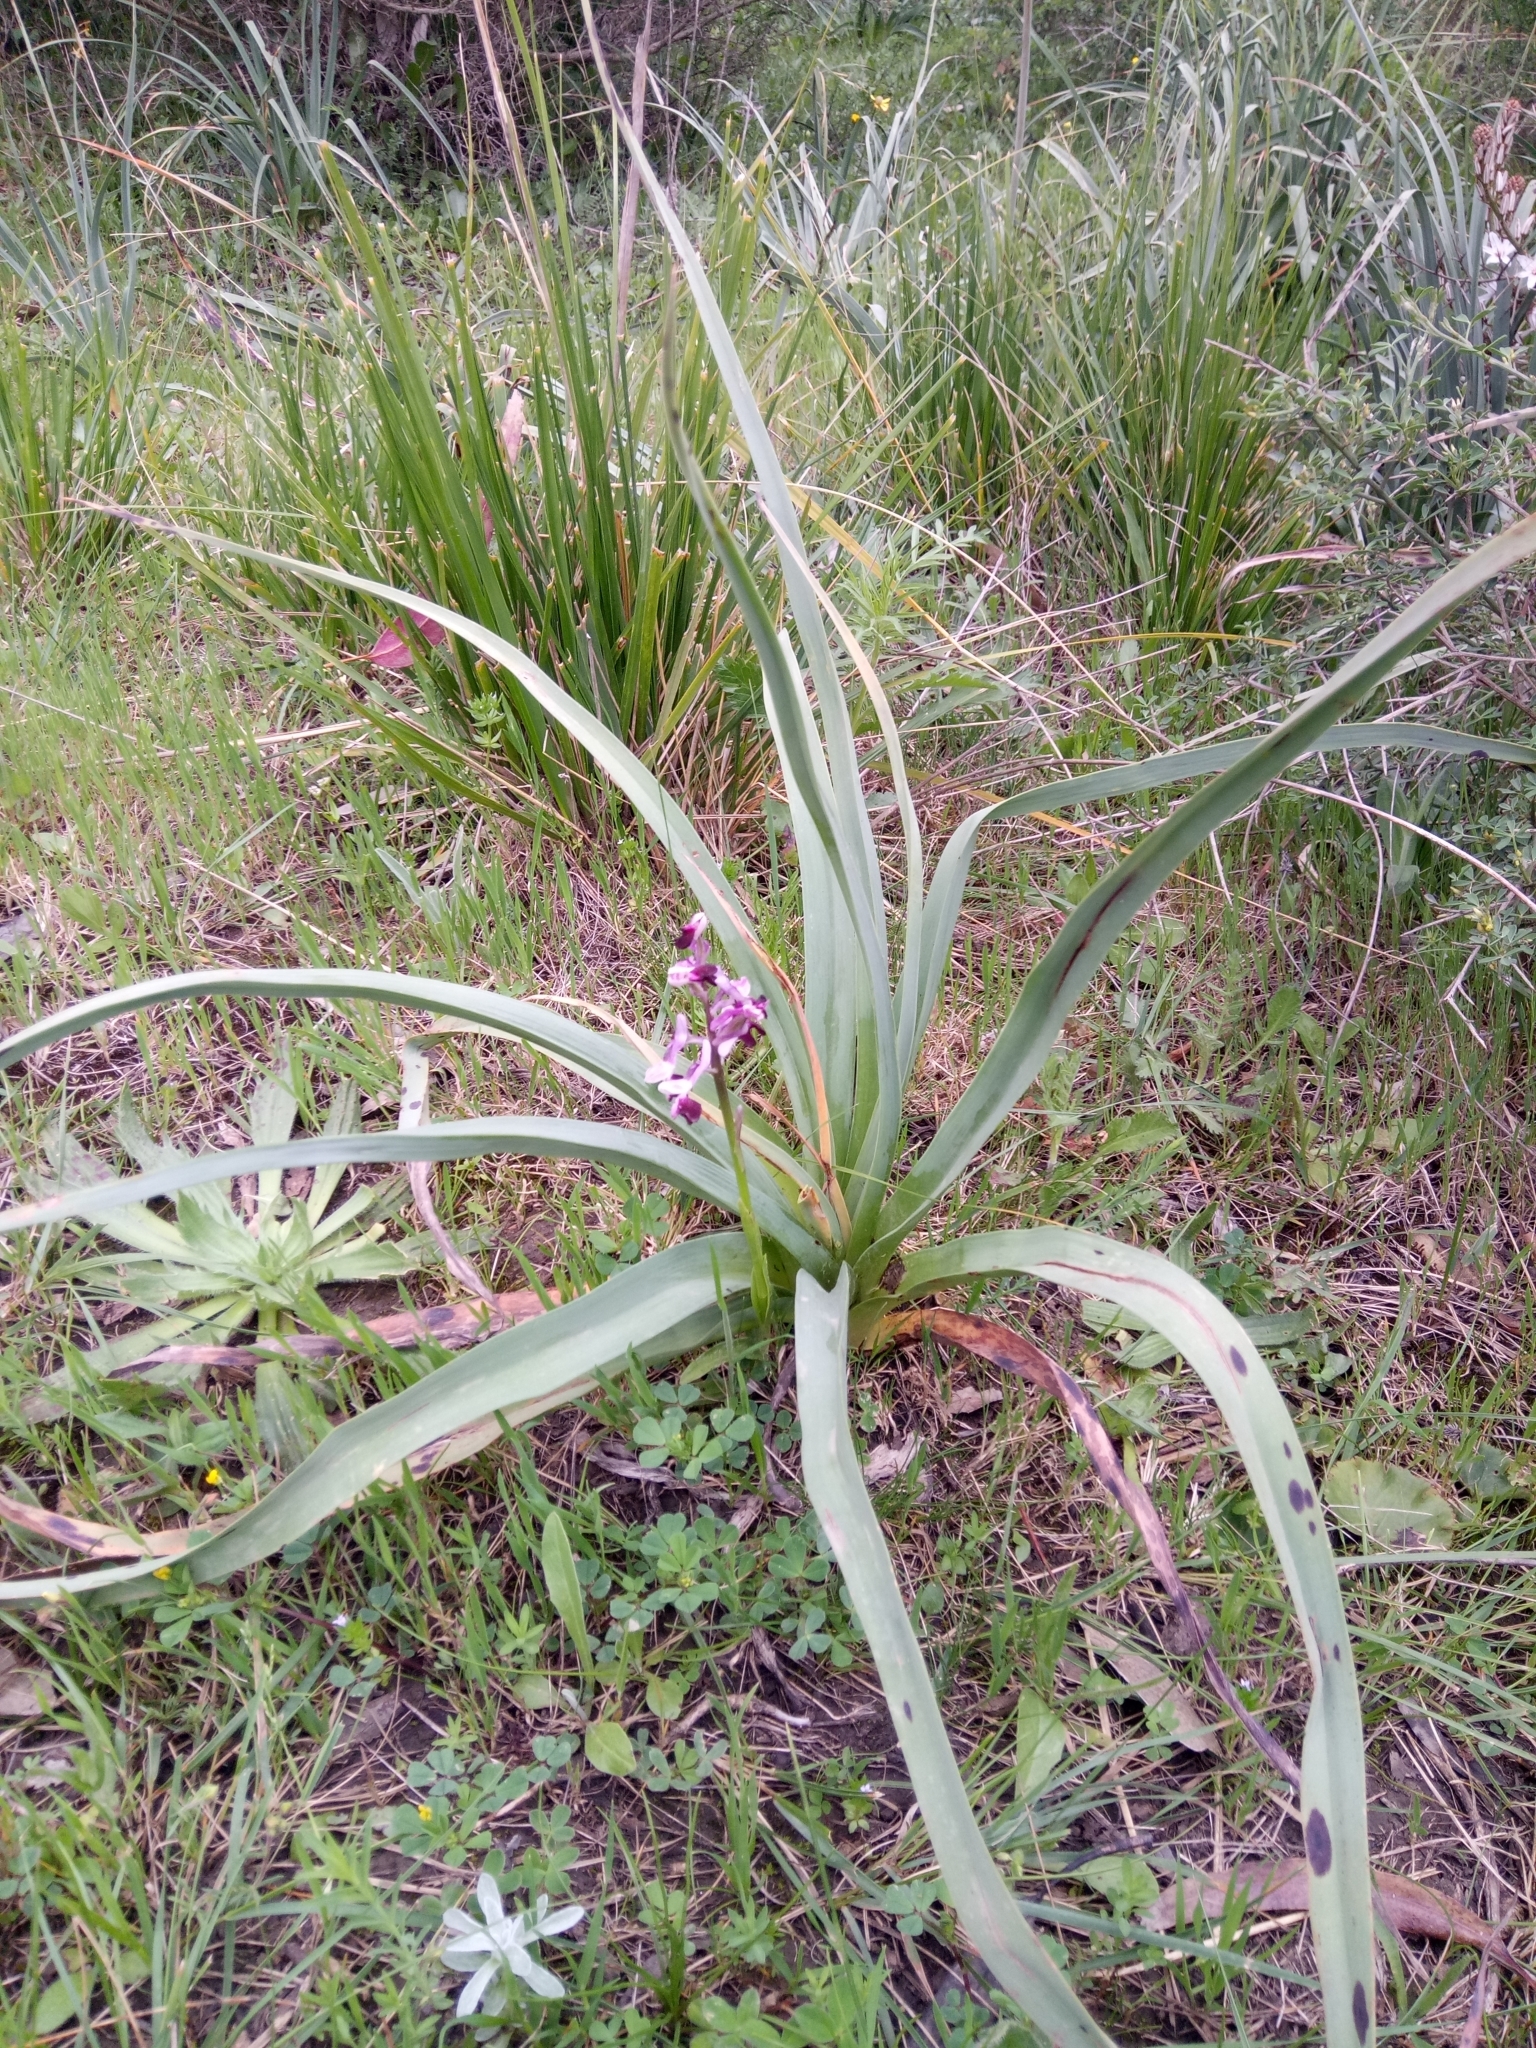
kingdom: Plantae
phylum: Tracheophyta
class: Liliopsida
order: Asparagales
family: Orchidaceae
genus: Anacamptis
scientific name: Anacamptis morio
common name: Green-winged orchid
